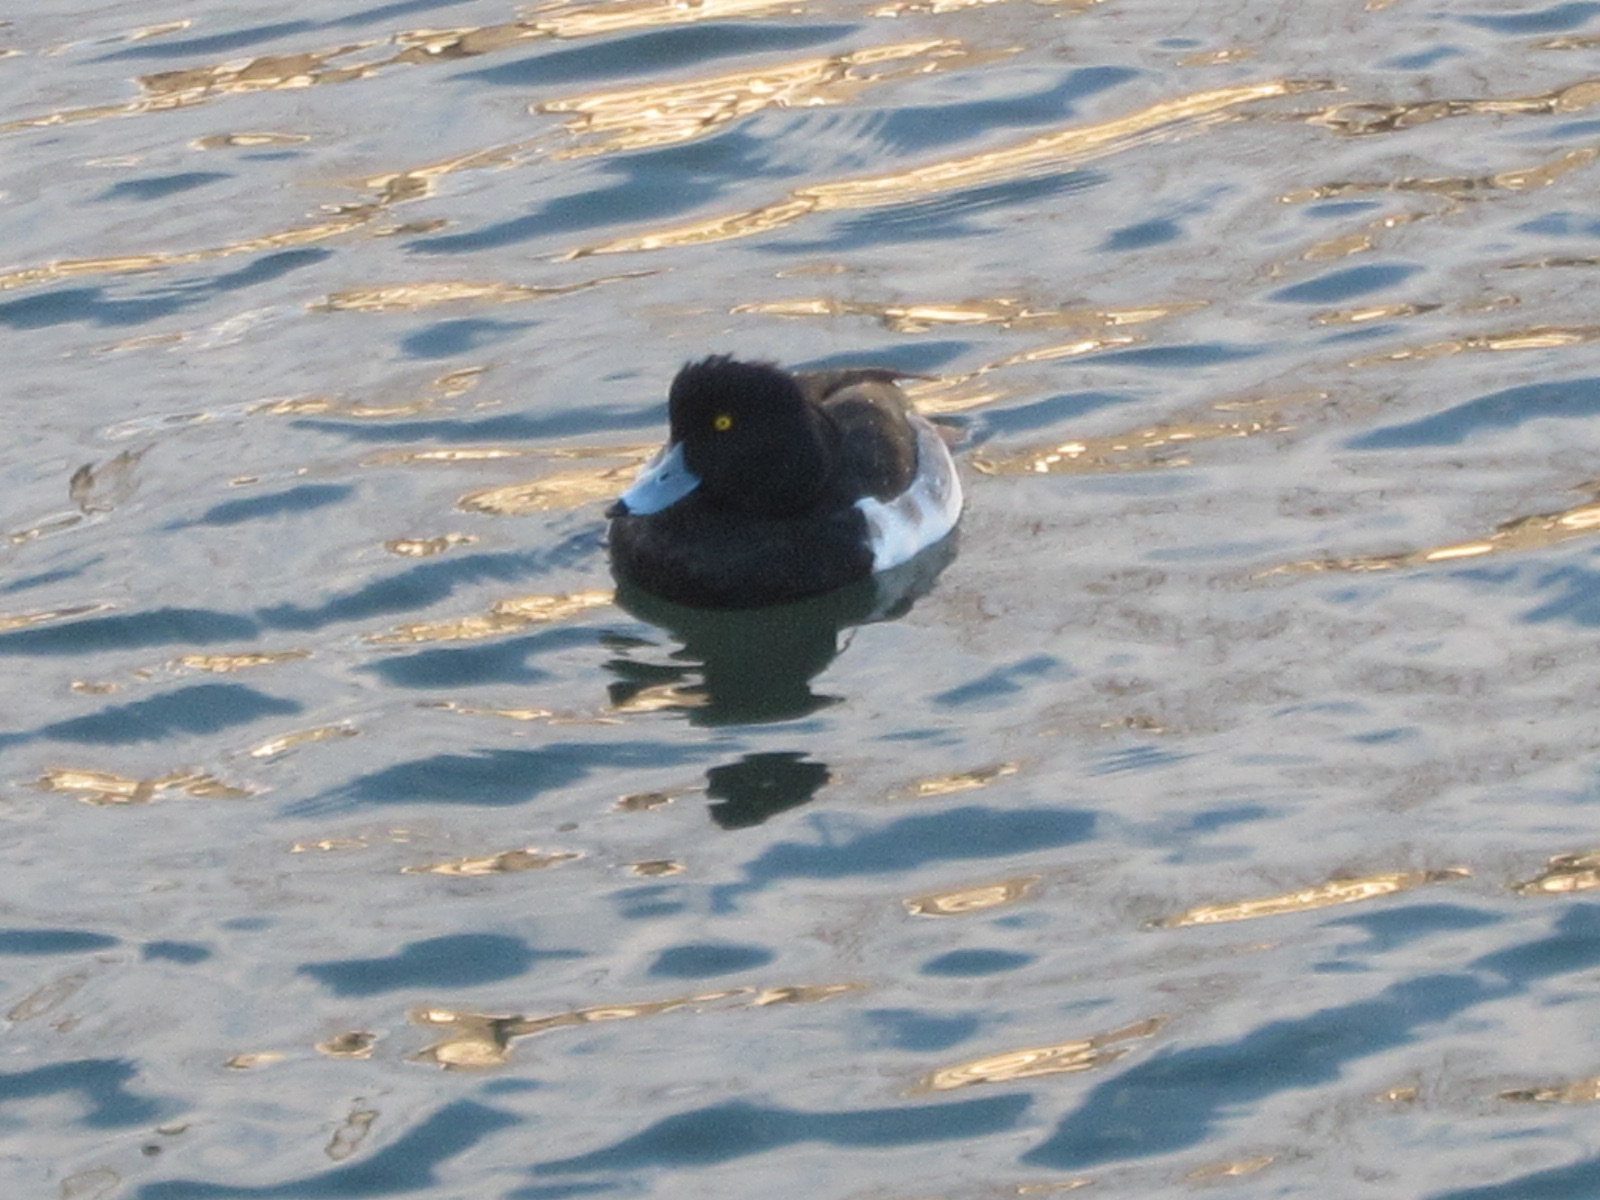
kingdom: Animalia
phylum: Chordata
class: Aves
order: Anseriformes
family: Anatidae
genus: Aythya
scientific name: Aythya fuligula
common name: Tufted duck
